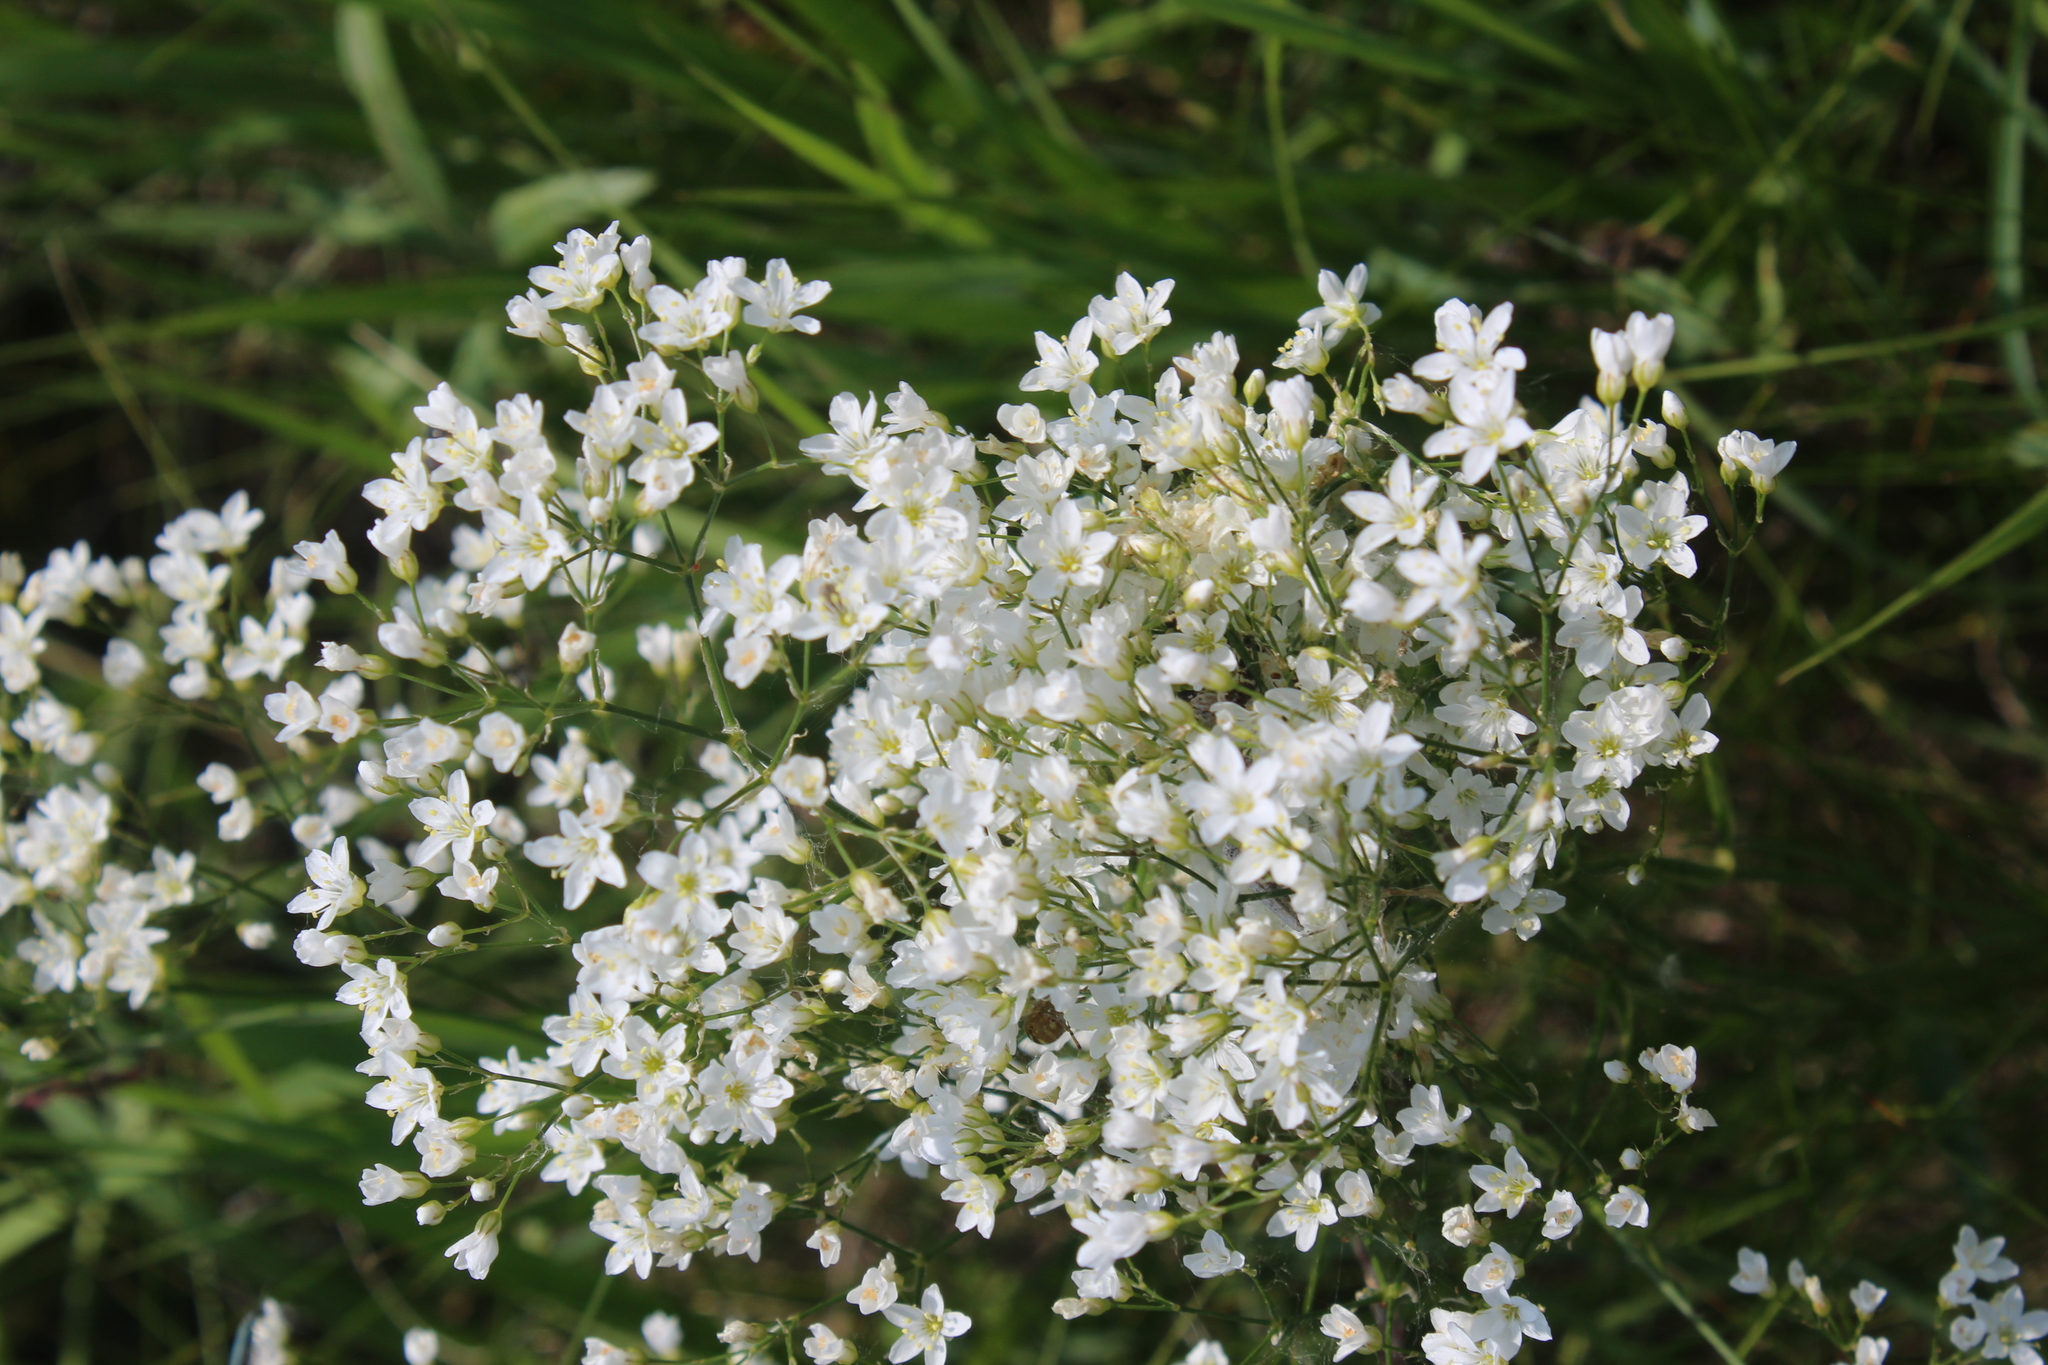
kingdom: Plantae
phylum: Tracheophyta
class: Magnoliopsida
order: Caryophyllales
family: Caryophyllaceae
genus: Eremogone
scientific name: Eremogone longifolia
